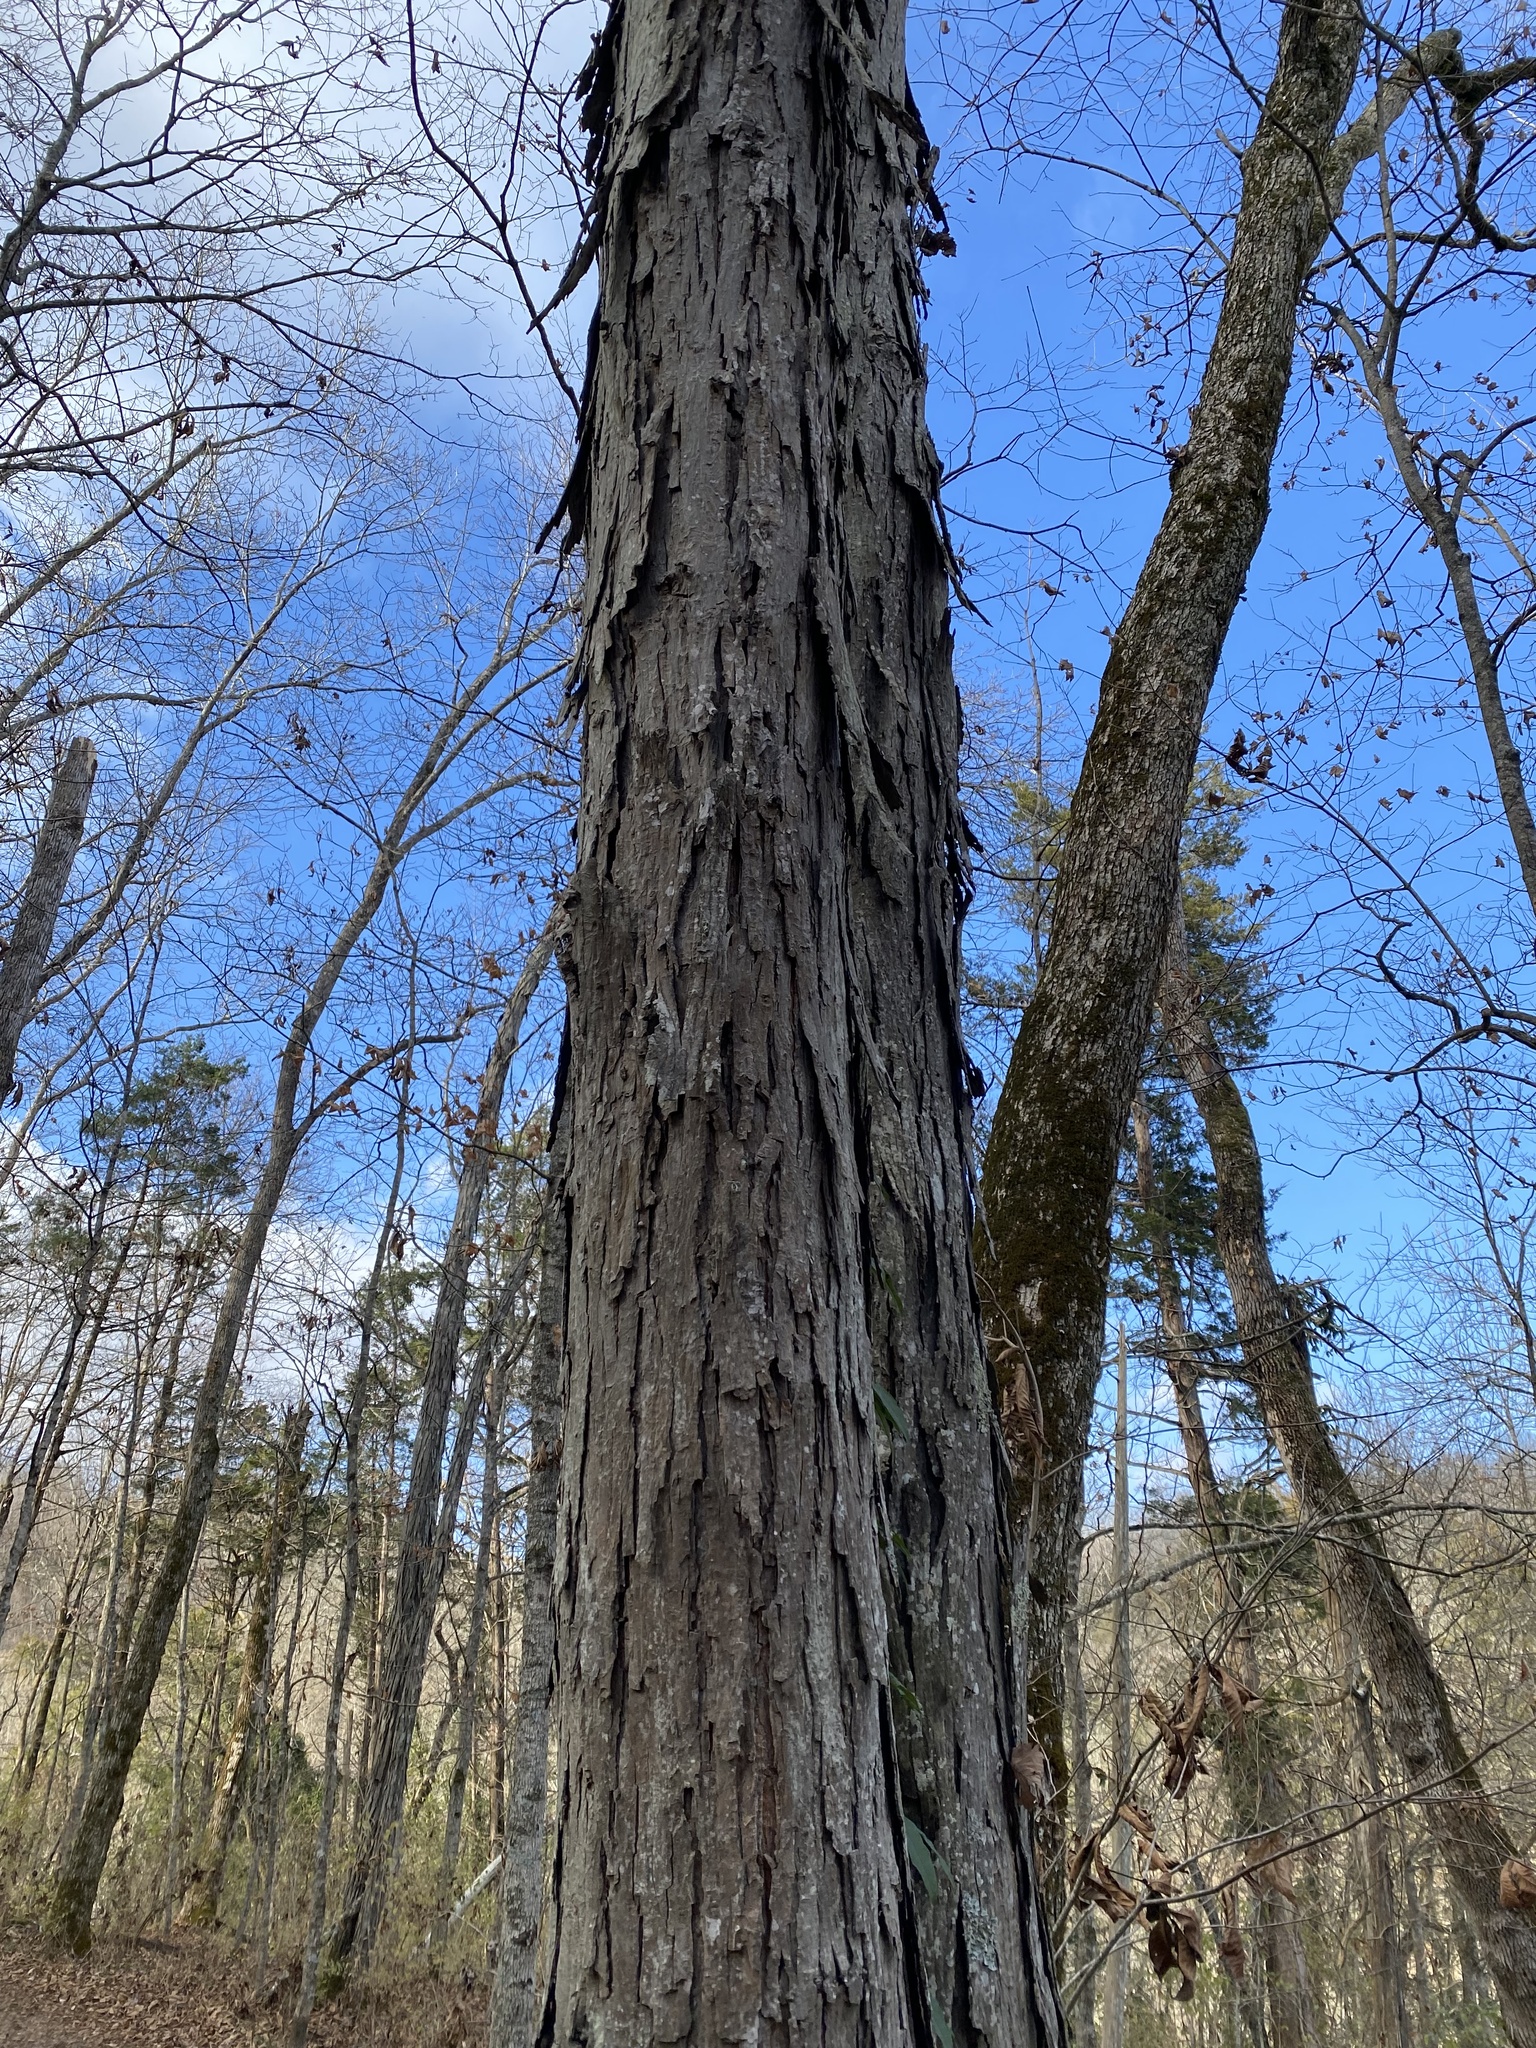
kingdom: Plantae
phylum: Tracheophyta
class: Magnoliopsida
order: Fagales
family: Juglandaceae
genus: Carya
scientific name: Carya ovata
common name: Shagbark hickory
